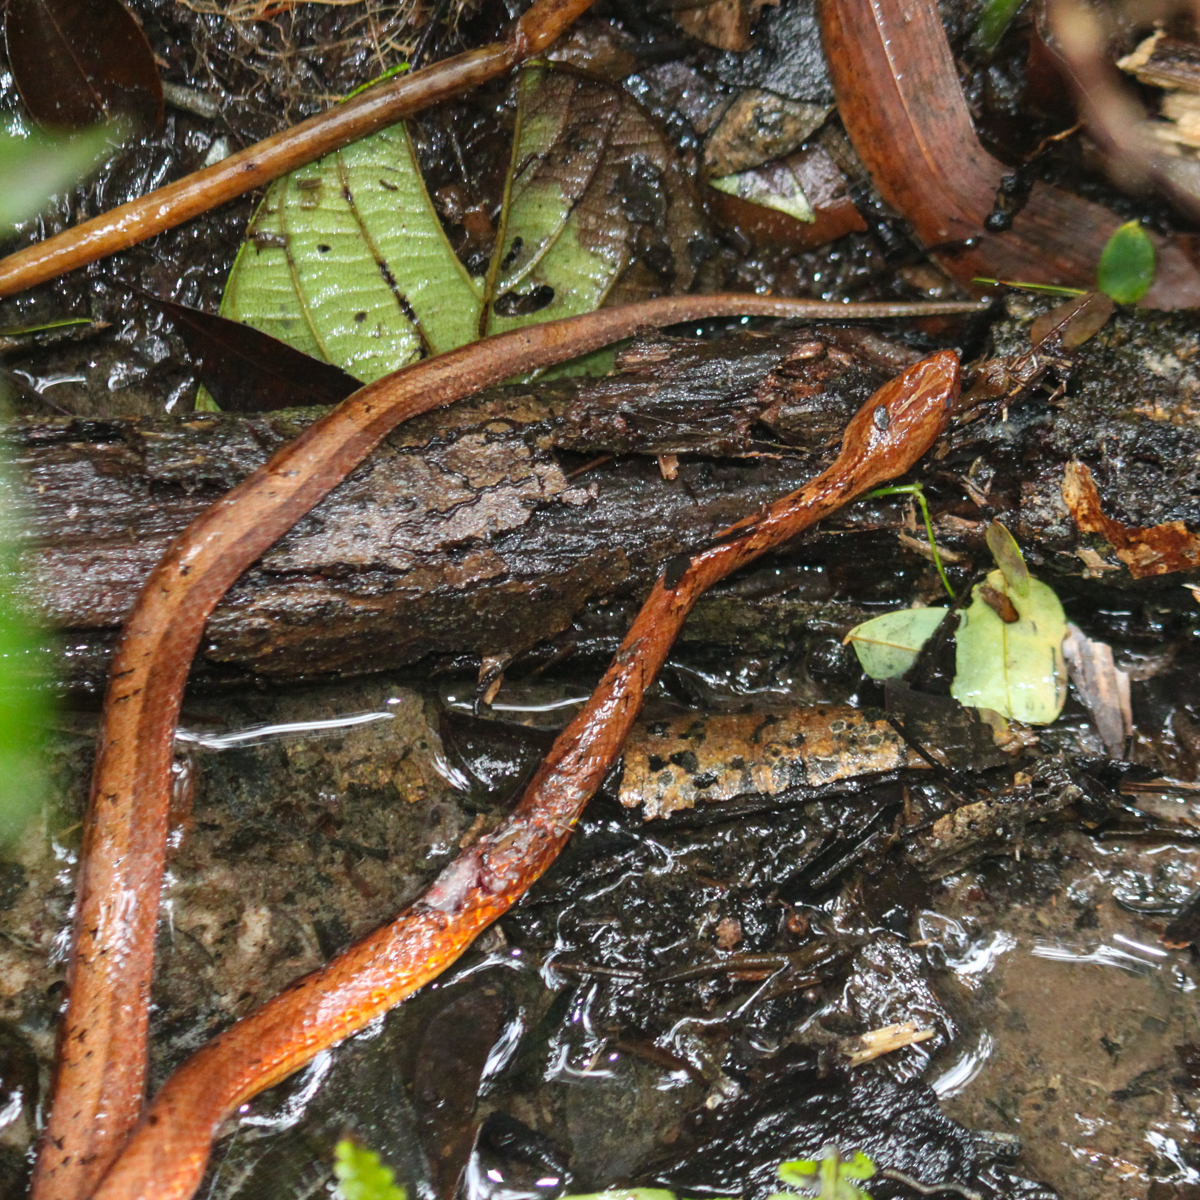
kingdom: Animalia
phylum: Chordata
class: Squamata
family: Pseudaspididae
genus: Psammodynastes
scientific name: Psammodynastes pulverulentus
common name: Common mock viper
